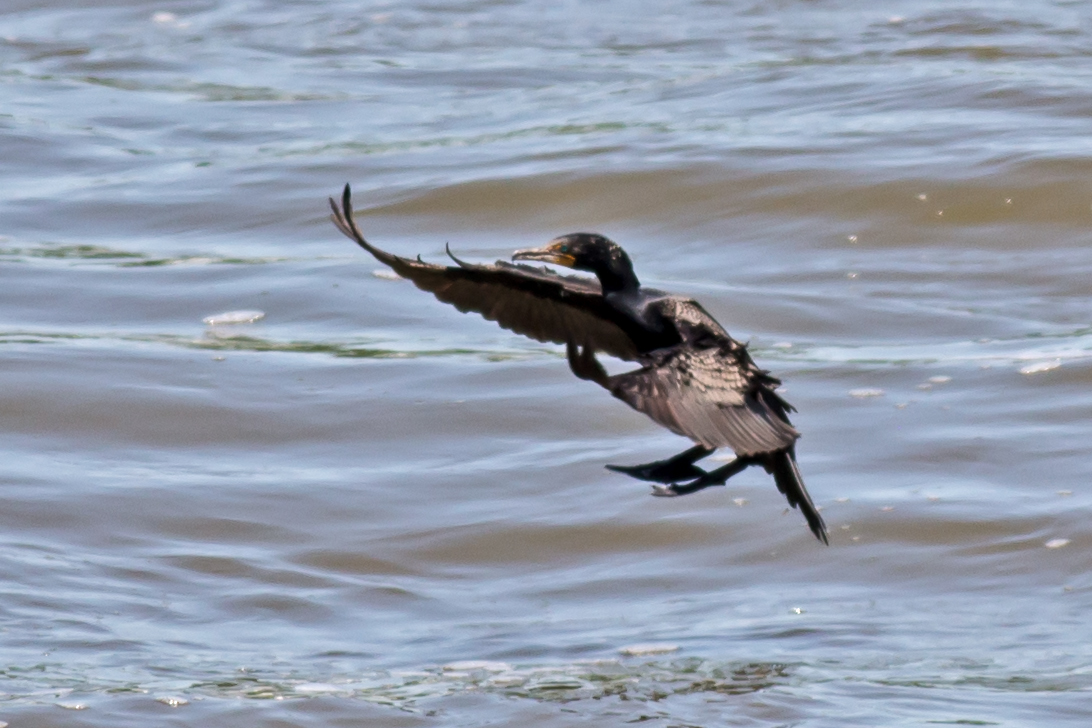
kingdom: Animalia
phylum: Chordata
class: Aves
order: Suliformes
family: Phalacrocoracidae
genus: Phalacrocorax
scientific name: Phalacrocorax auritus
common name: Double-crested cormorant
